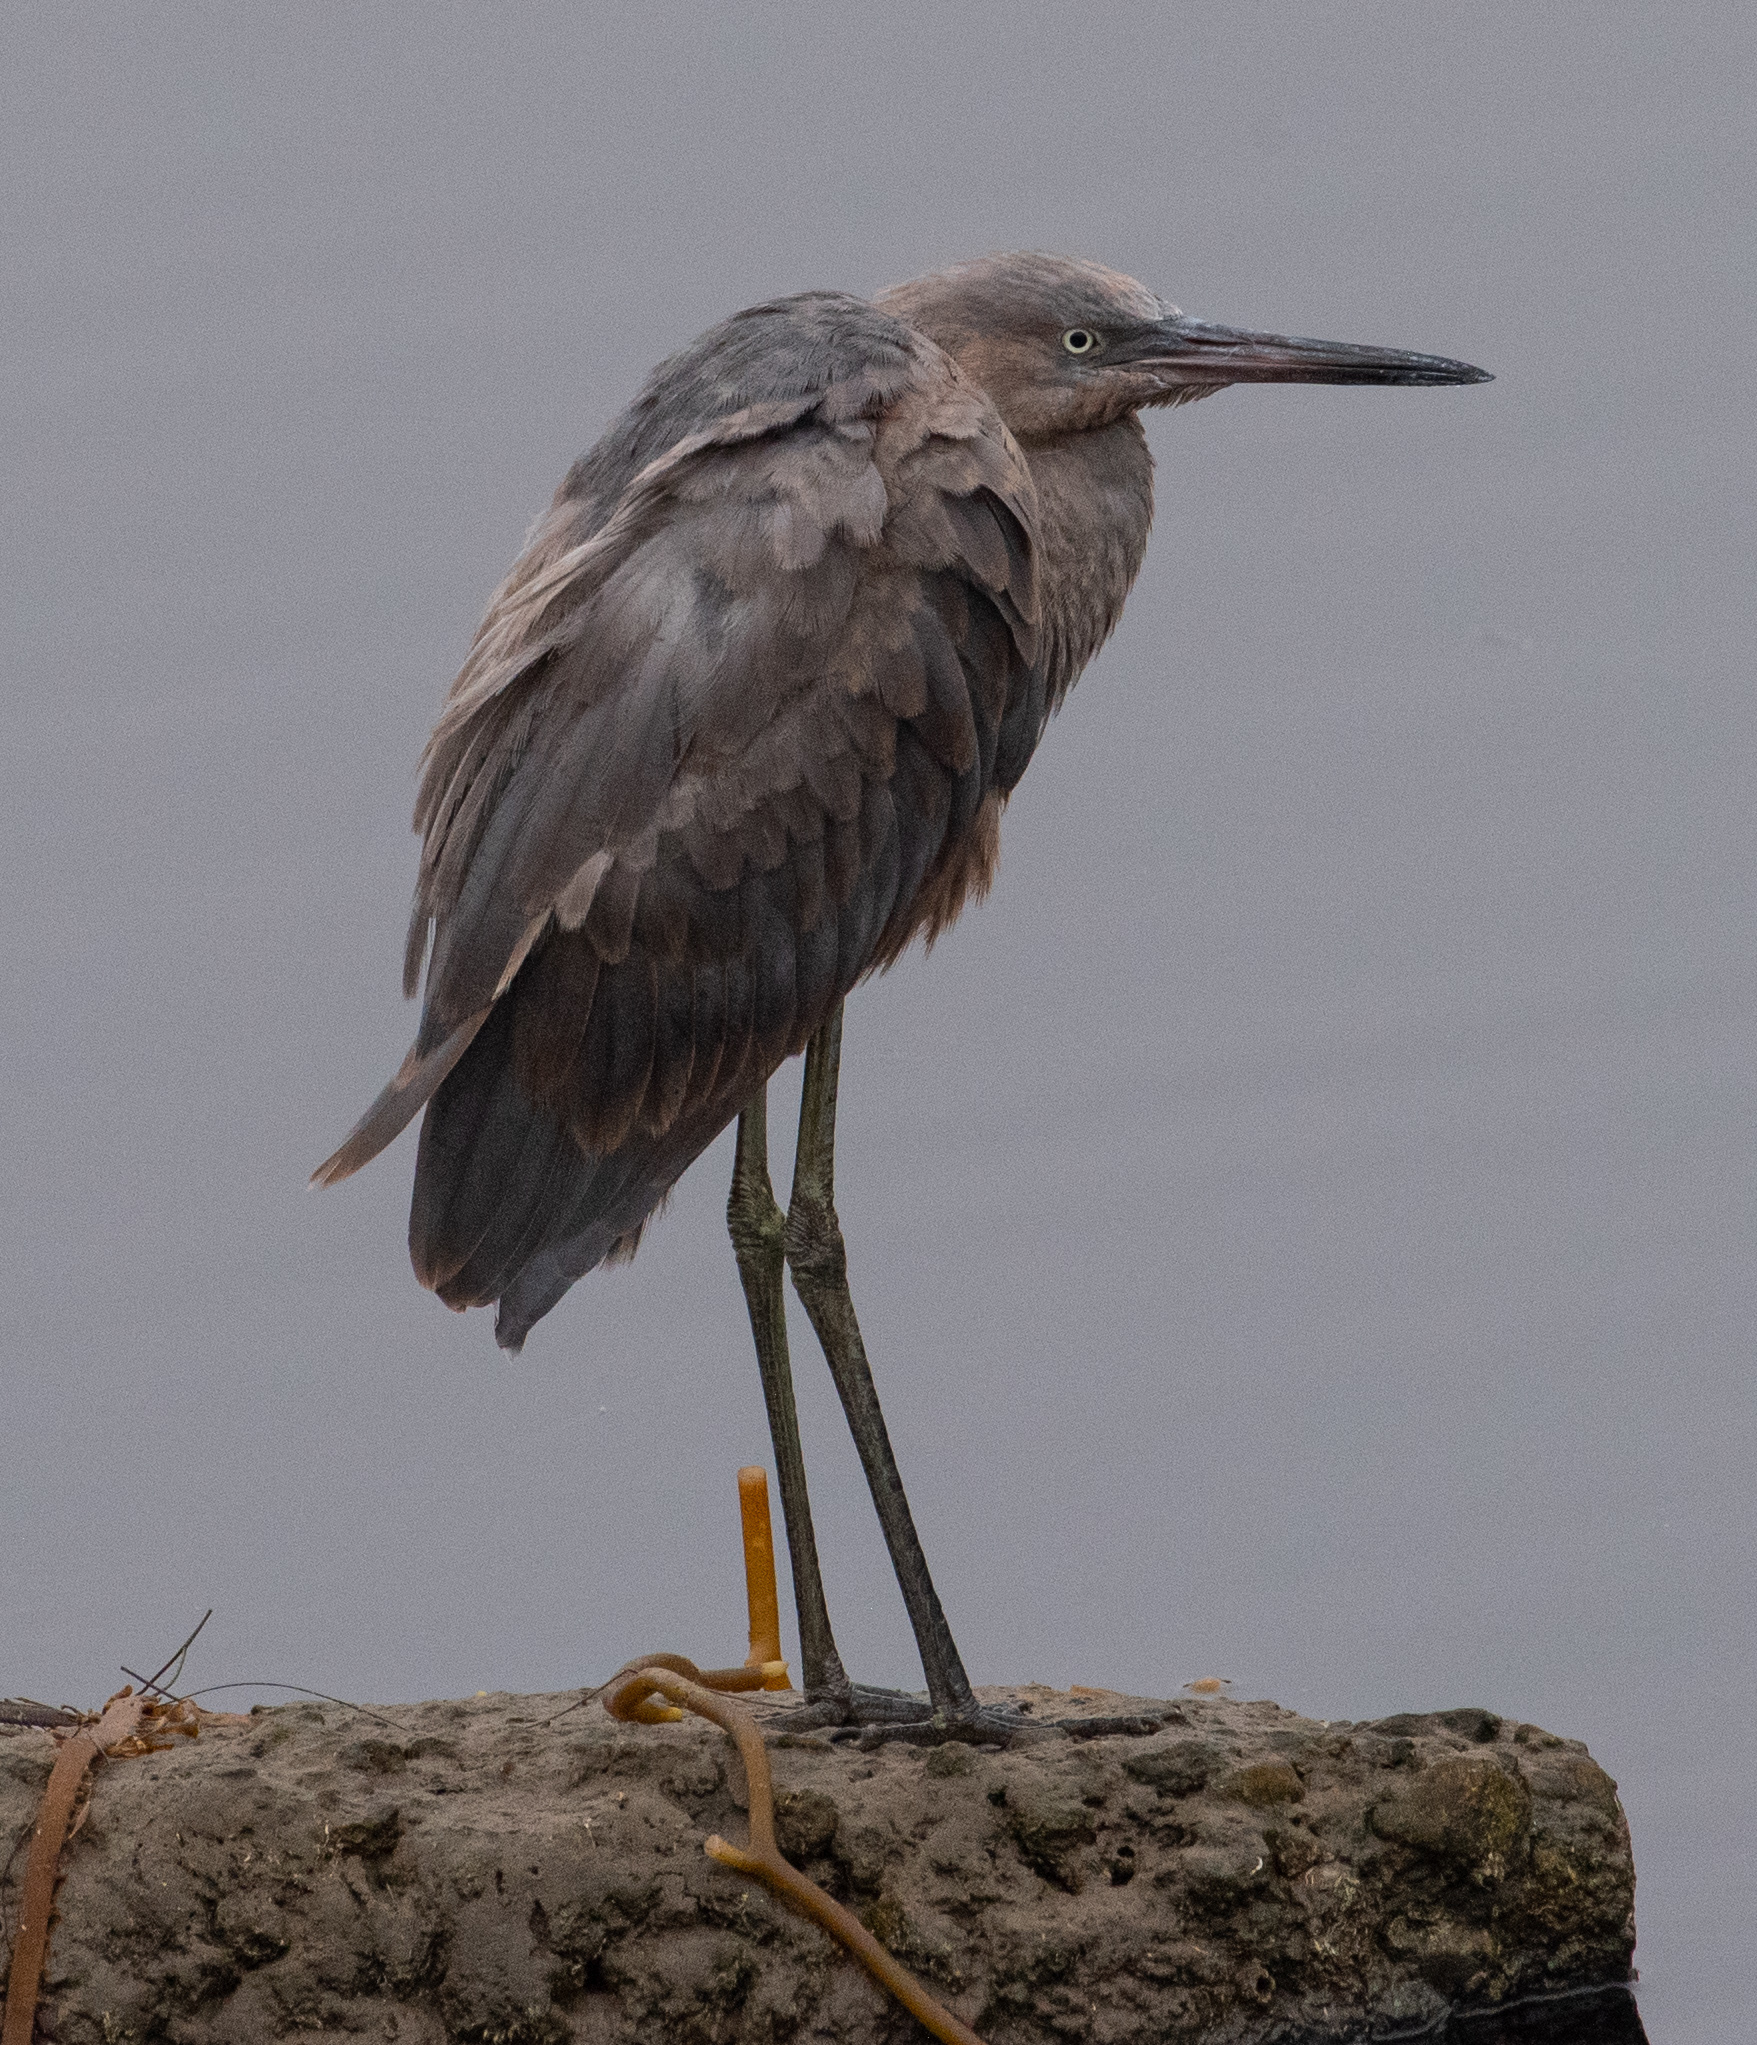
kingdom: Animalia
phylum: Chordata
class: Aves
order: Pelecaniformes
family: Ardeidae
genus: Egretta
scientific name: Egretta rufescens
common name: Reddish egret
